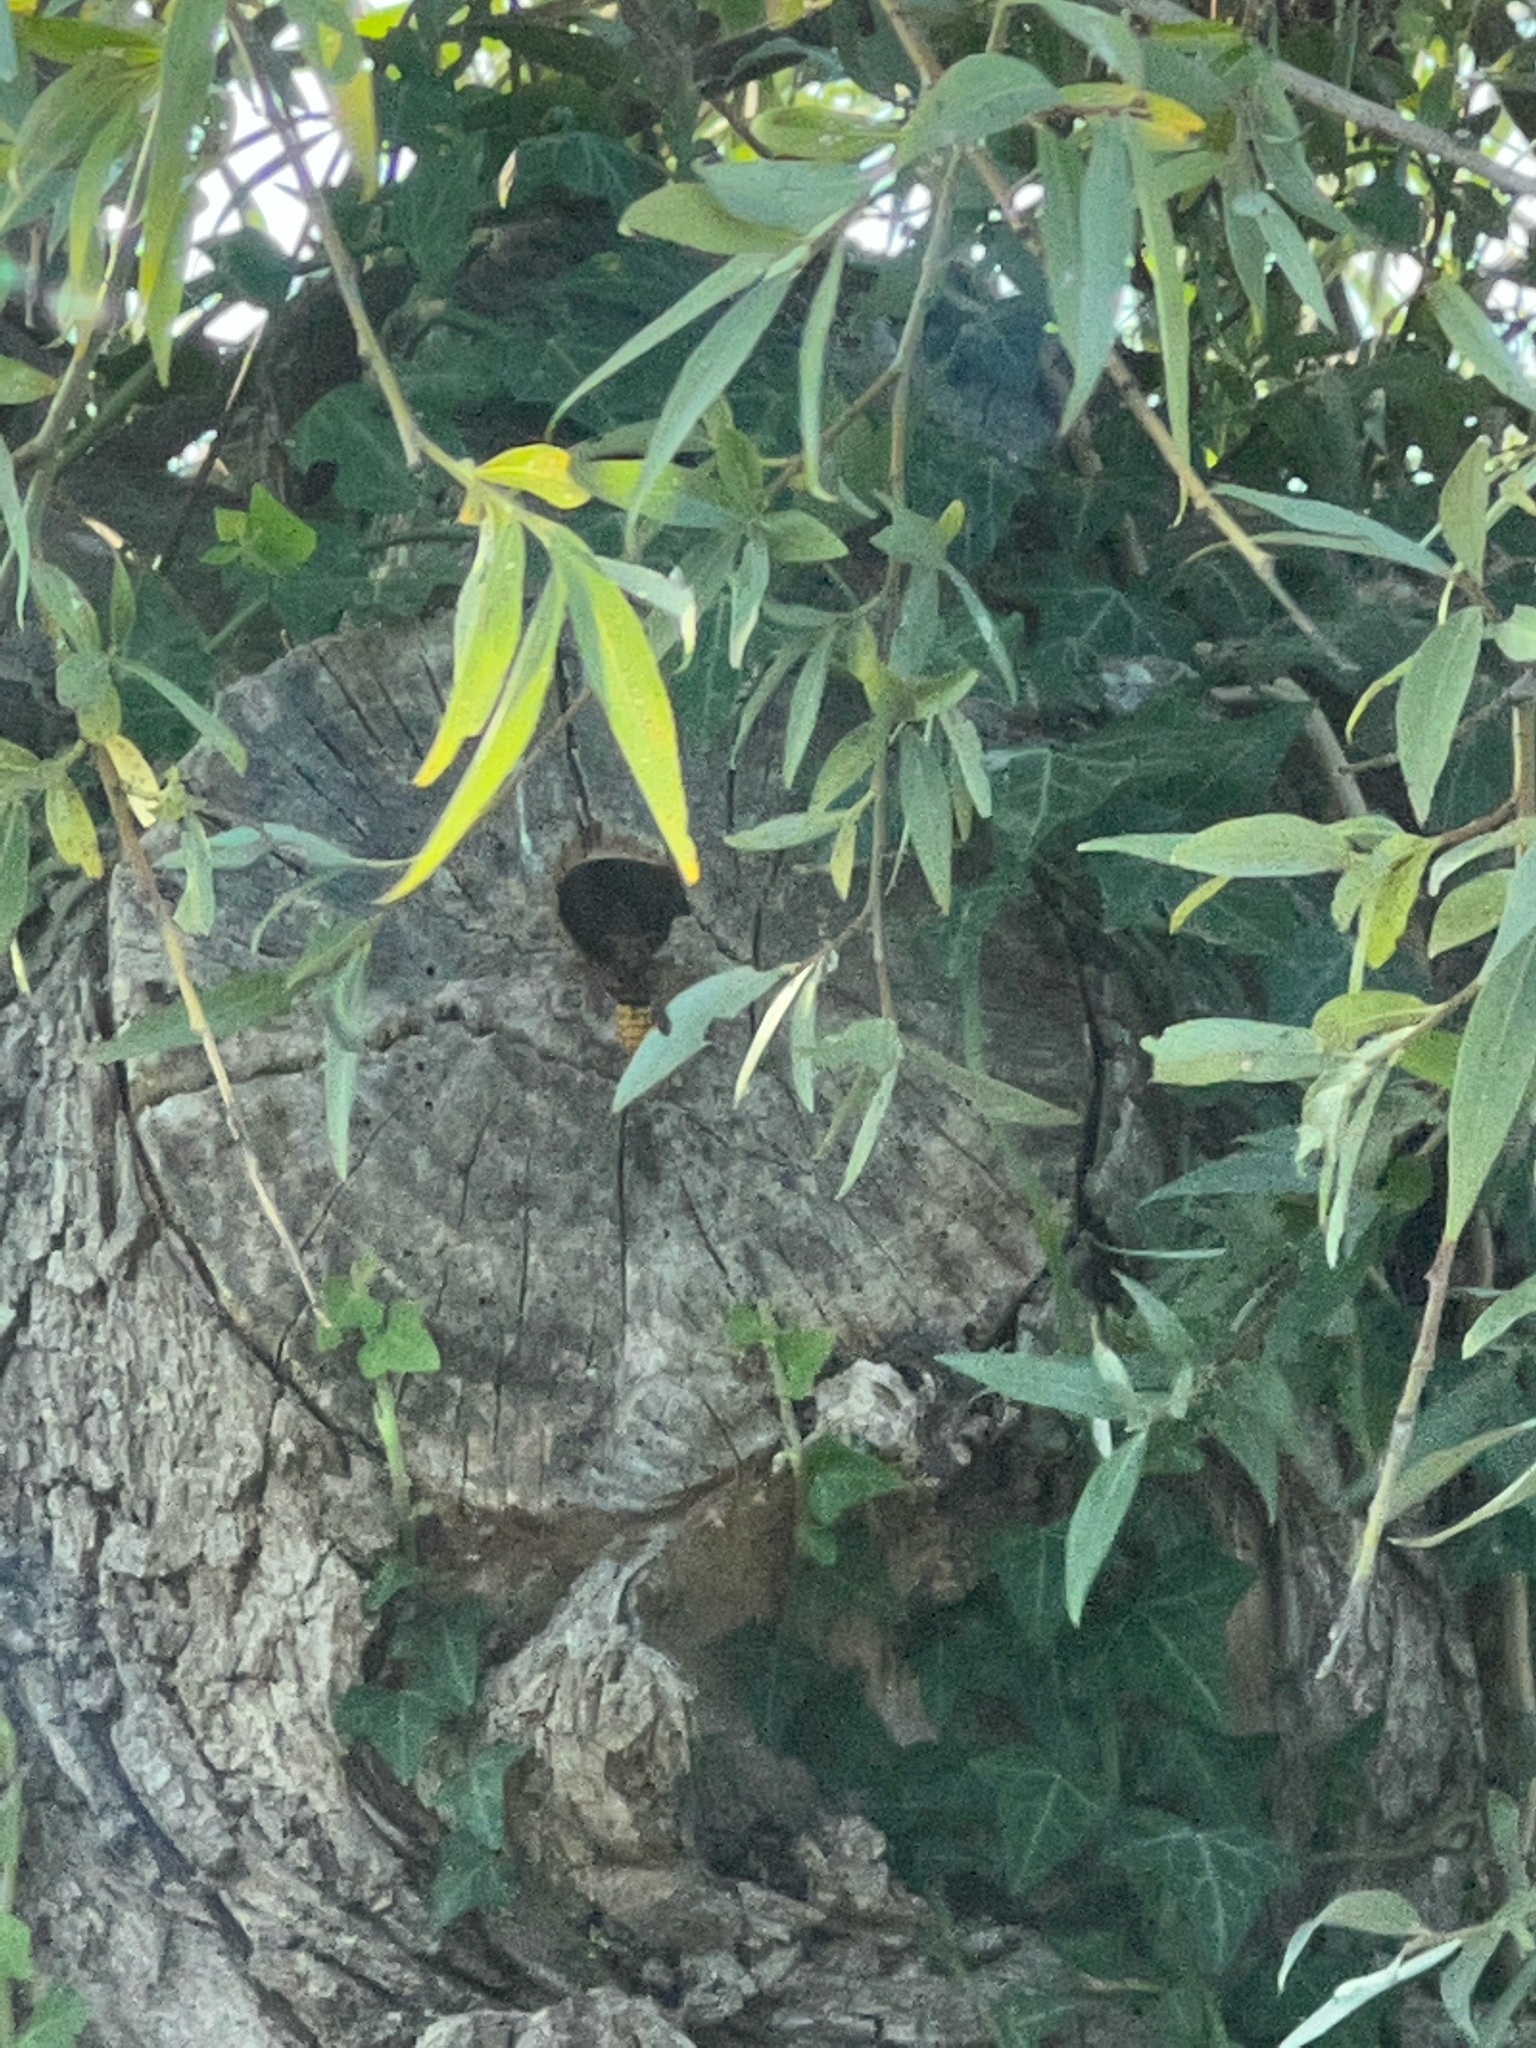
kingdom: Animalia
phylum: Arthropoda
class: Insecta
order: Hymenoptera
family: Vespidae
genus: Vespa
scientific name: Vespa crabro
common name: Hornet
